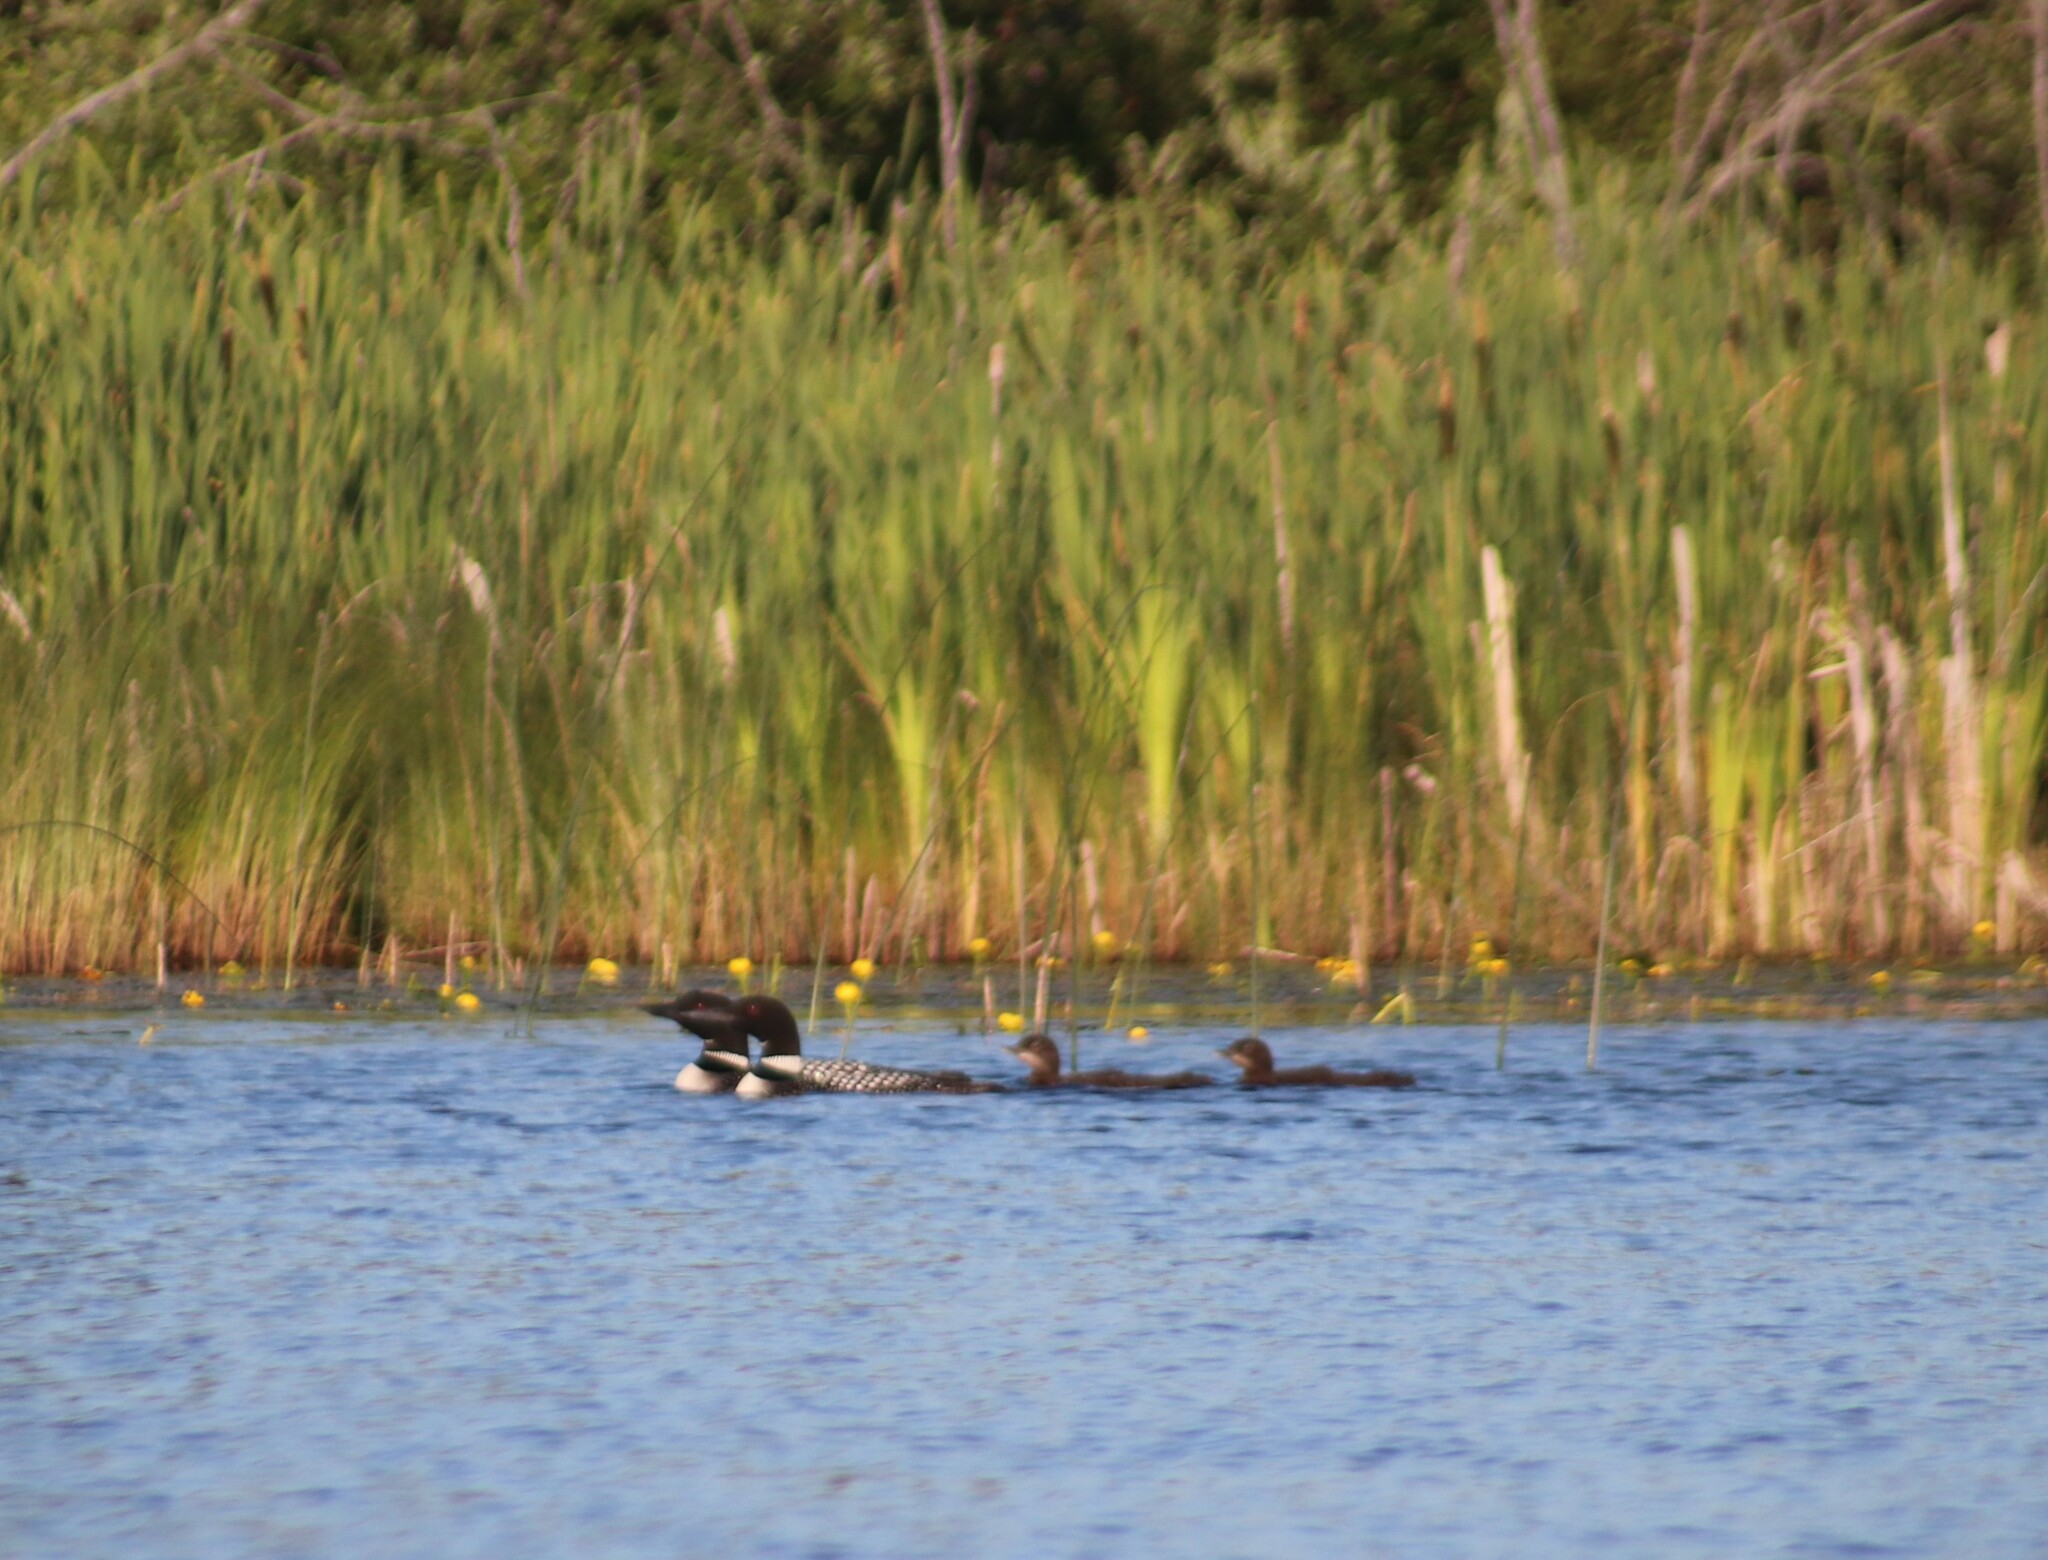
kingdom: Animalia
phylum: Chordata
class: Aves
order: Gaviiformes
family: Gaviidae
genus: Gavia
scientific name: Gavia immer
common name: Common loon
